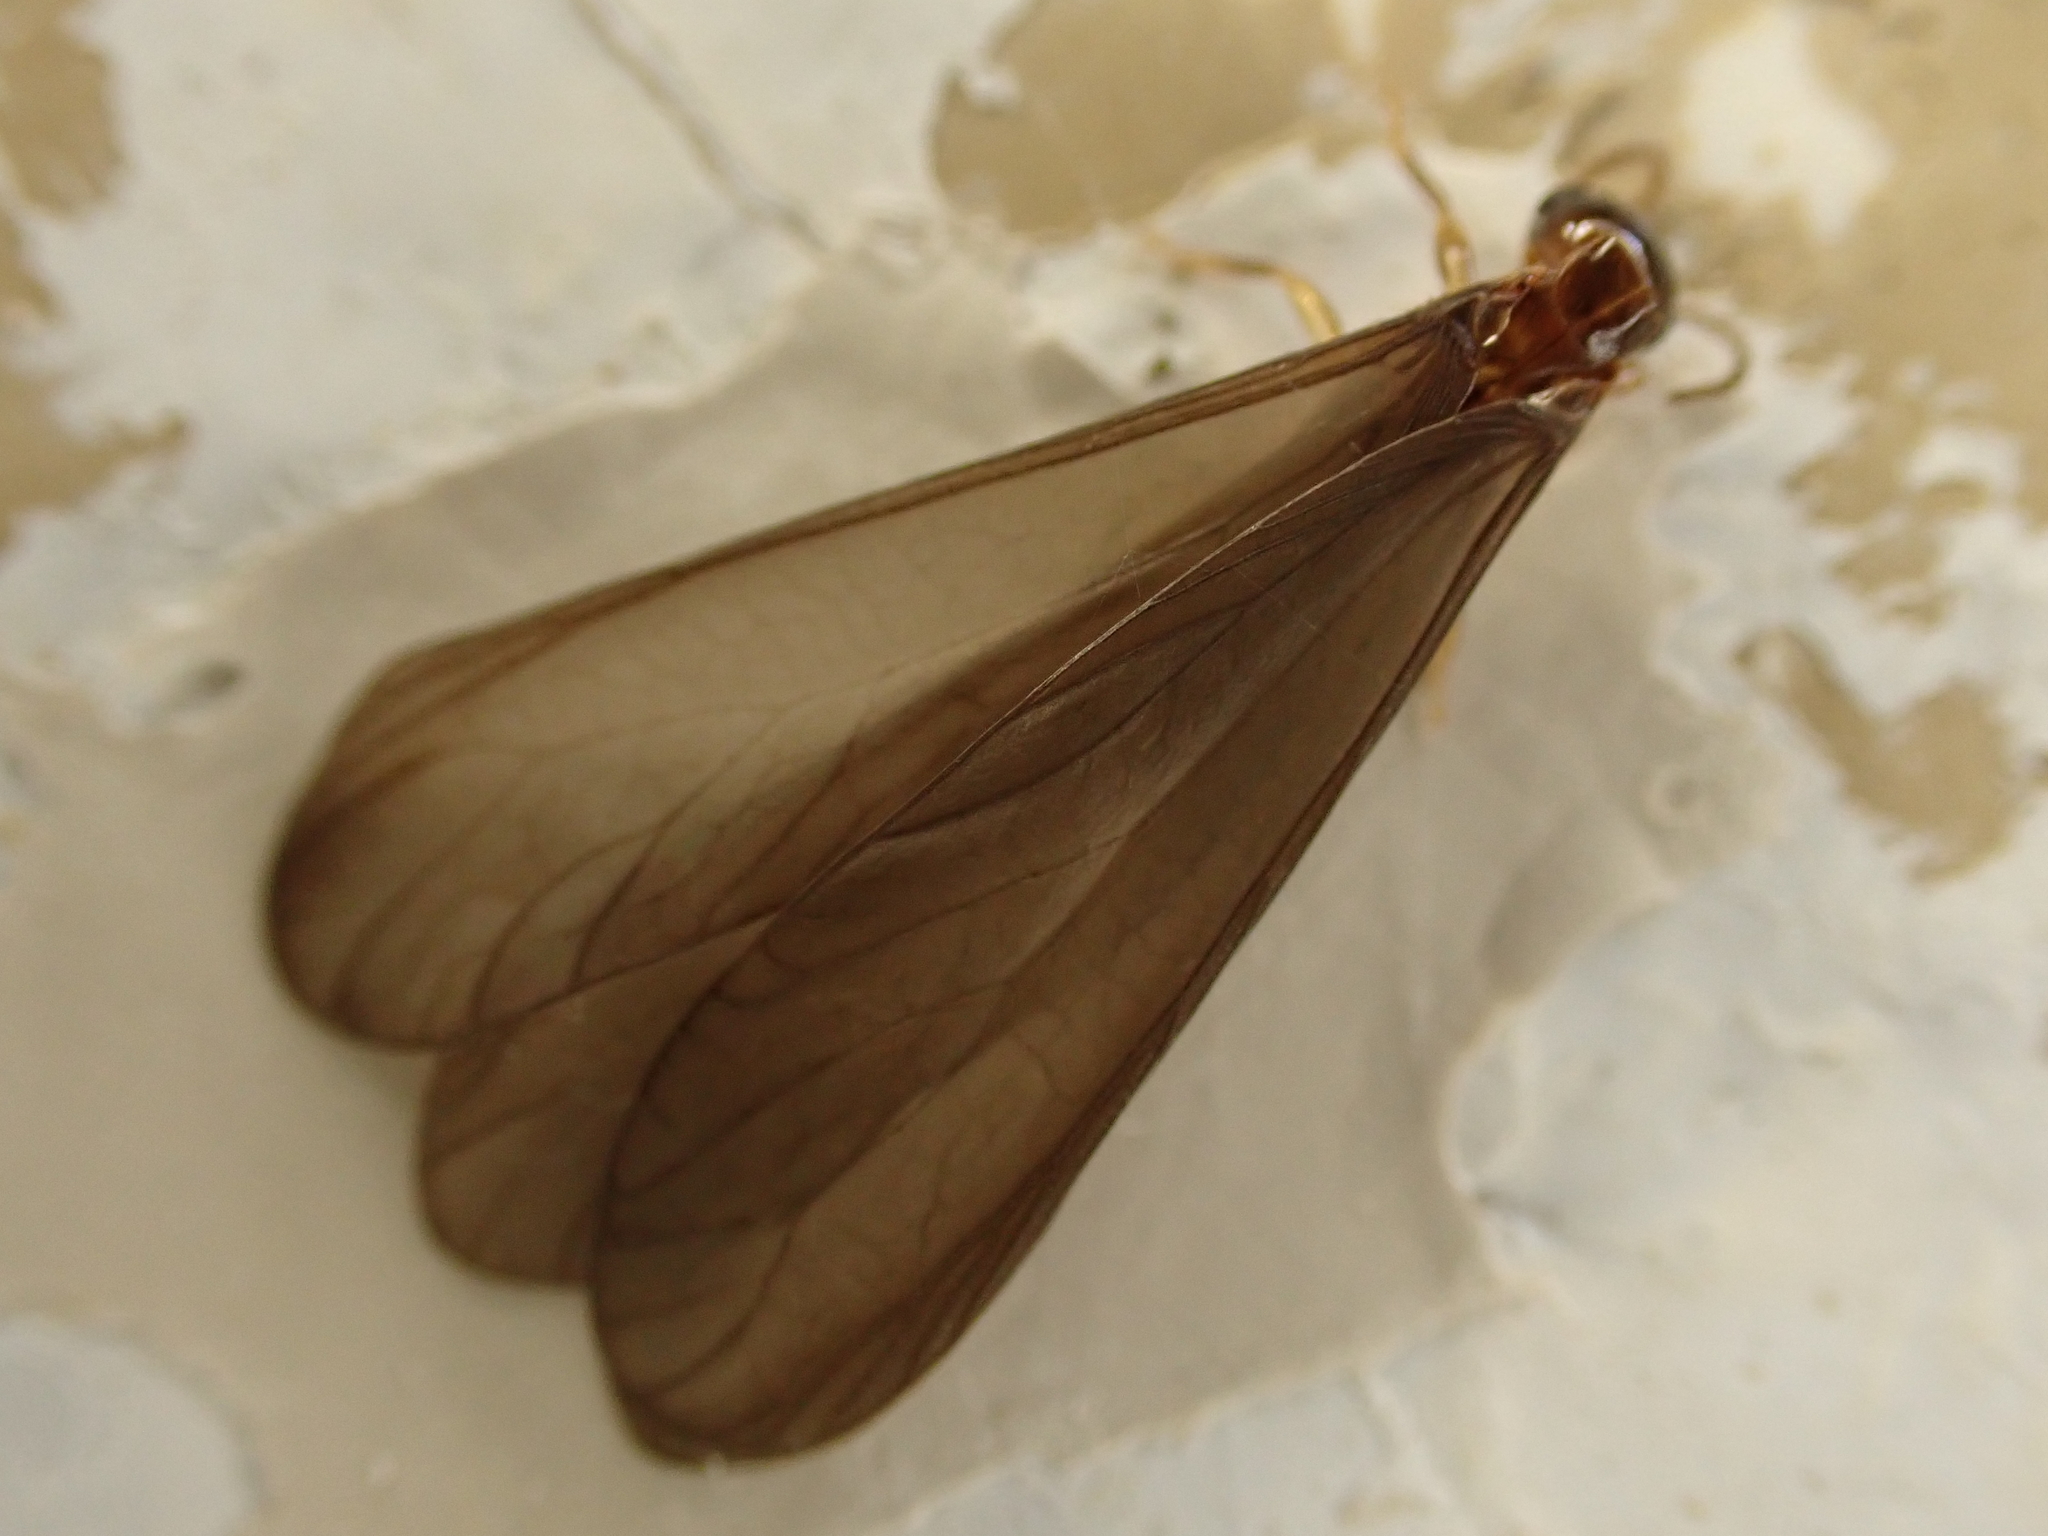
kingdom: Animalia
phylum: Arthropoda
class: Insecta
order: Blattodea
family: Stolotermitidae
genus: Stolotermes
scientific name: Stolotermes ruficeps
